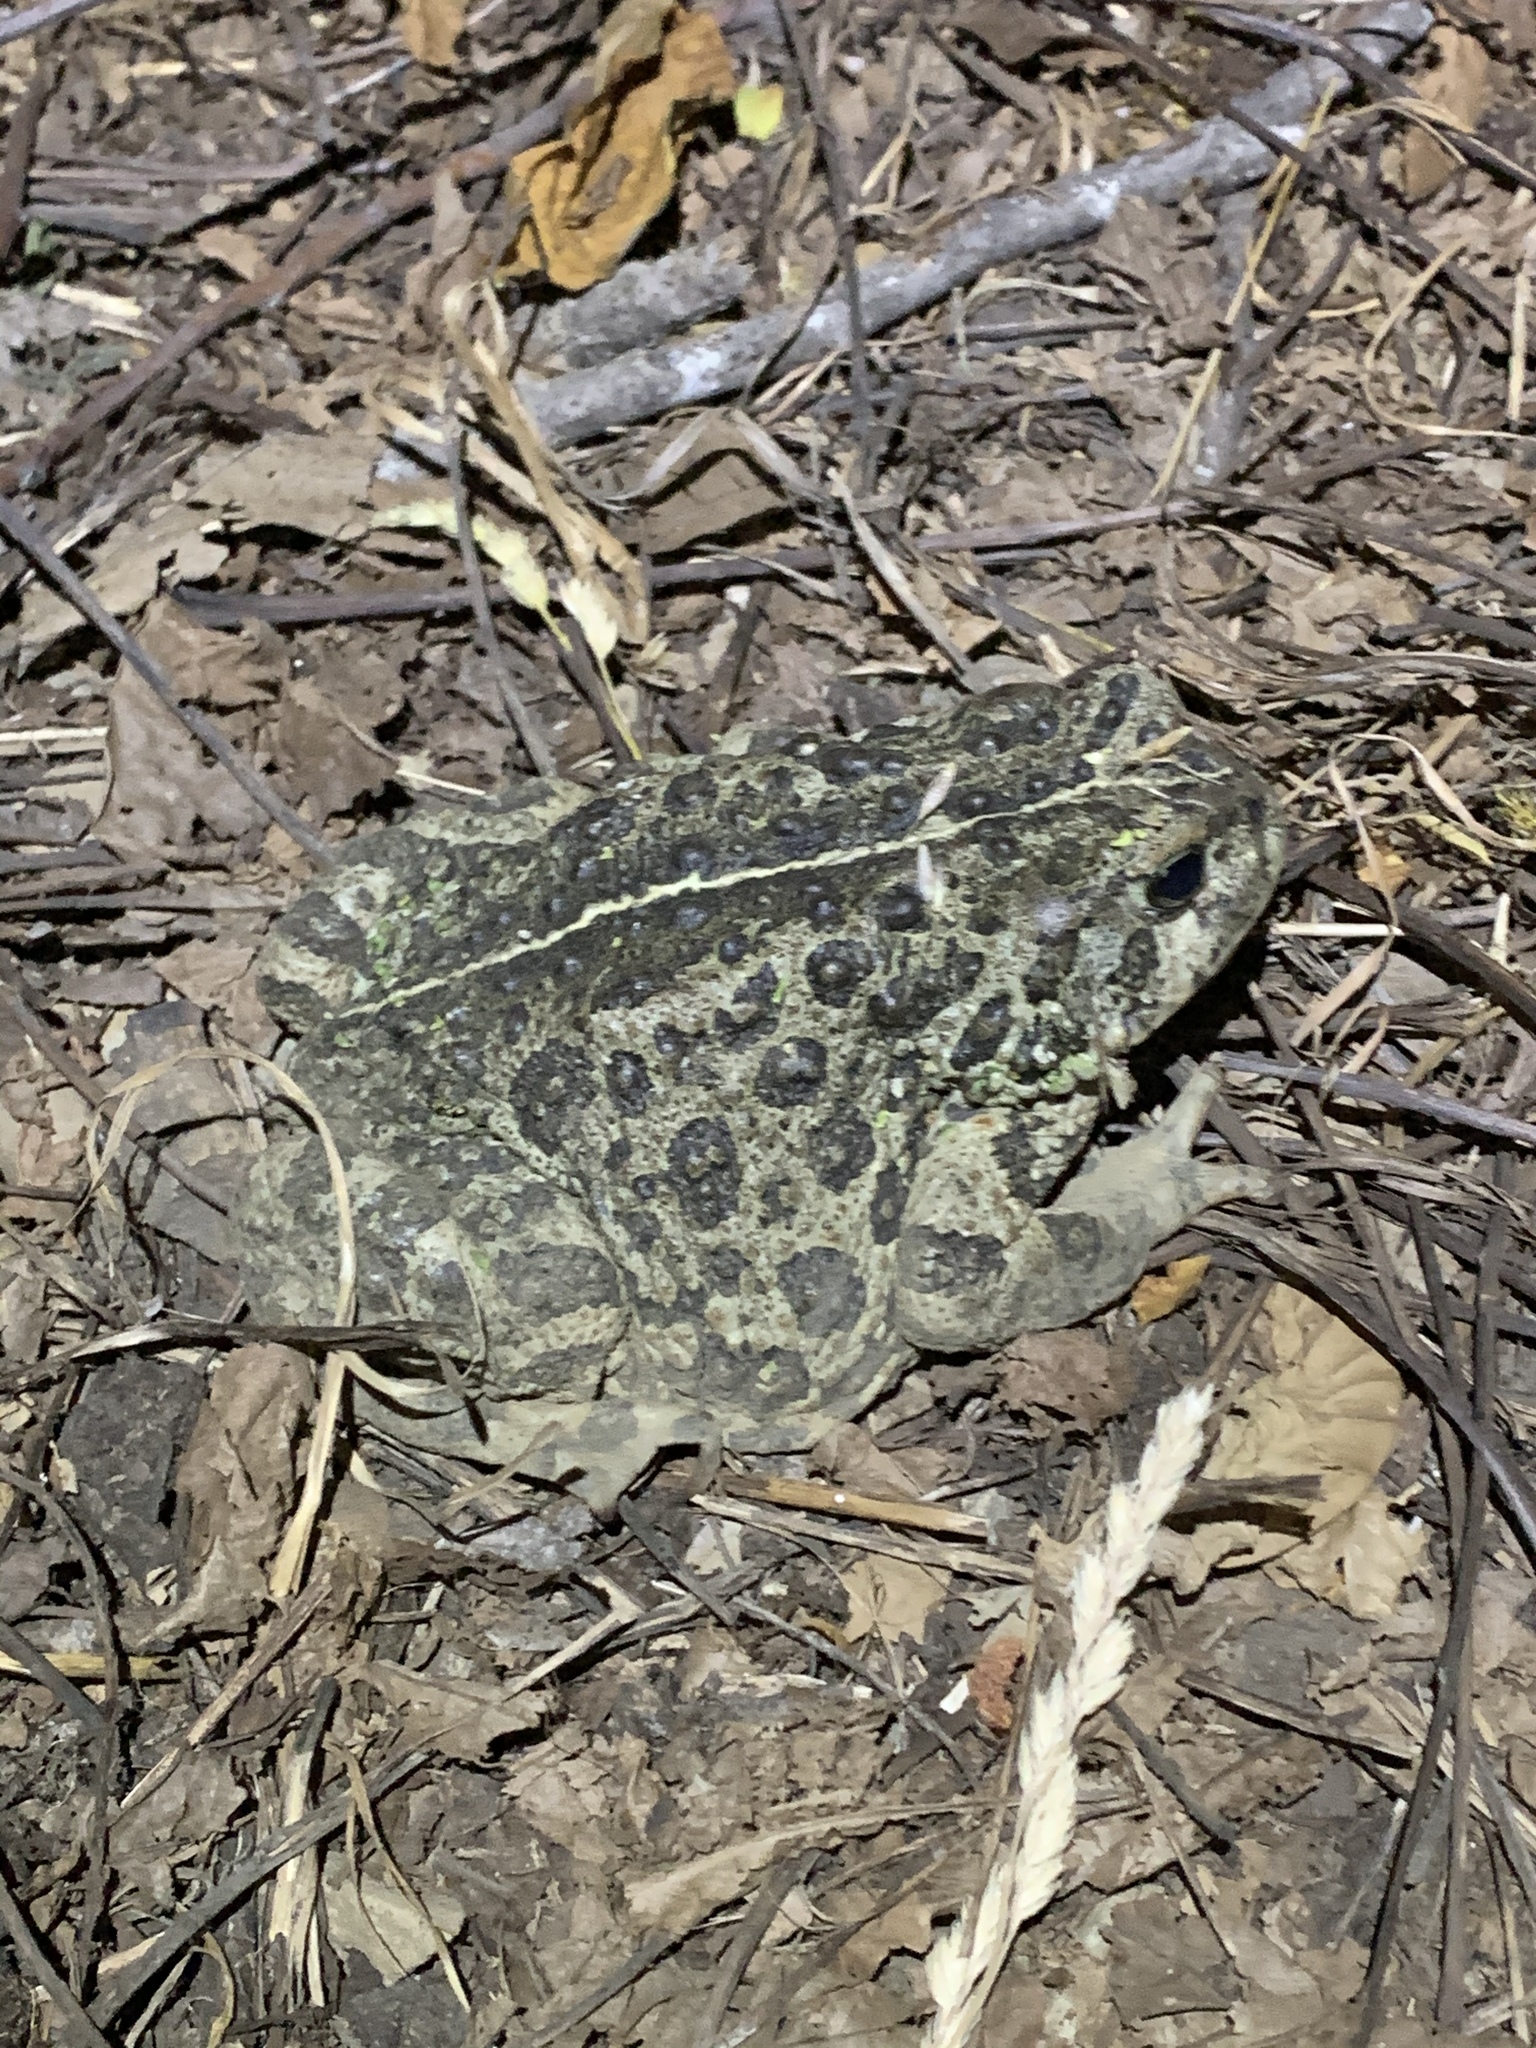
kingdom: Animalia
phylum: Chordata
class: Amphibia
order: Anura
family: Bufonidae
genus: Anaxyrus
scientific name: Anaxyrus boreas
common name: Western toad
